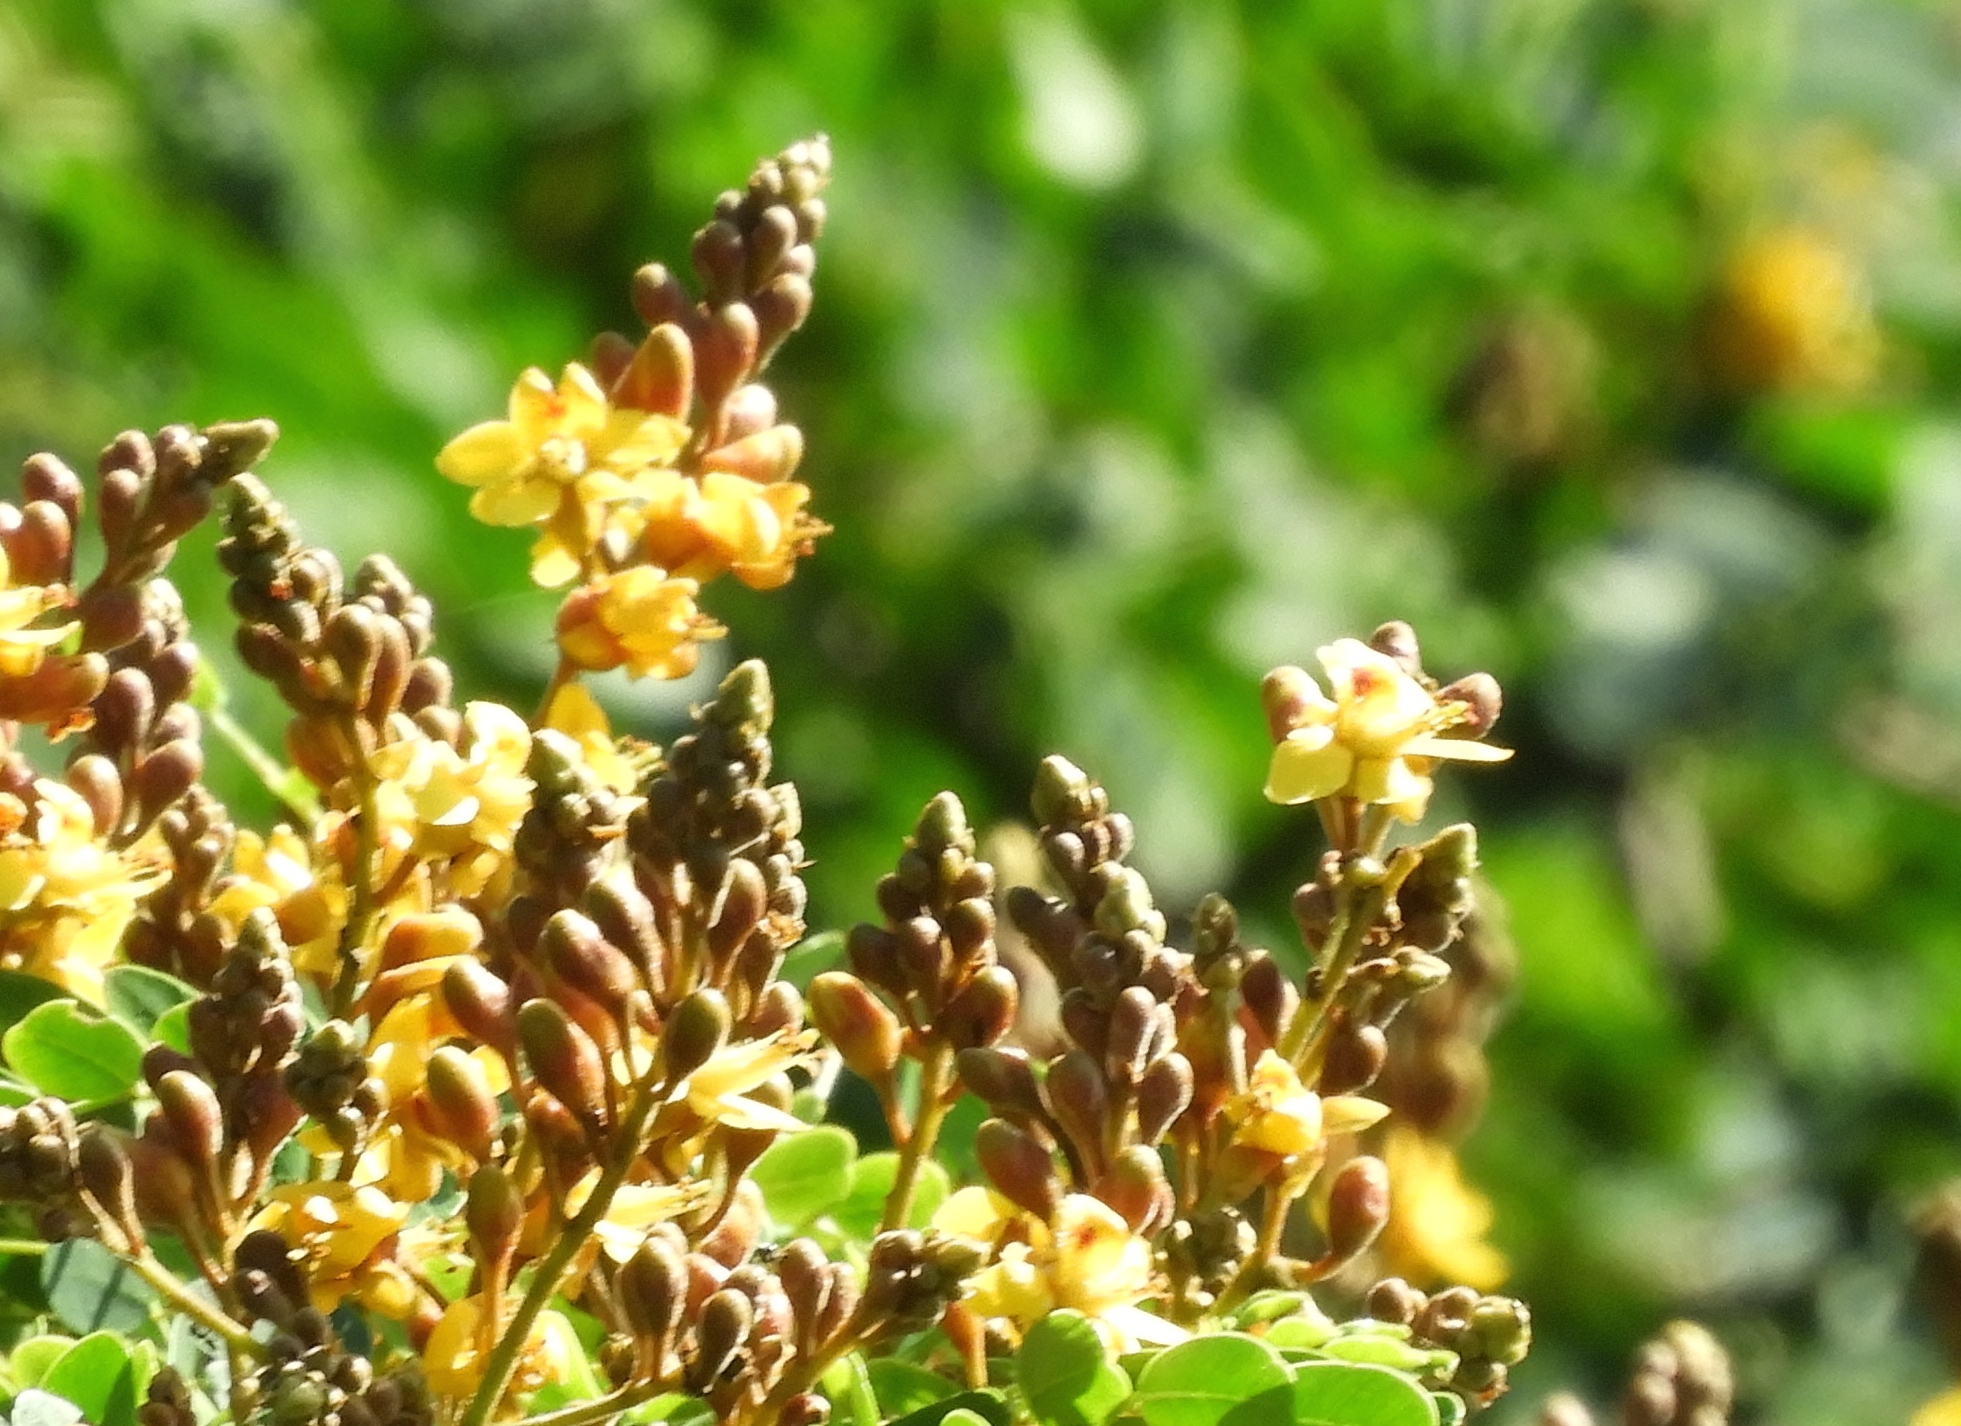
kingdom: Plantae
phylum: Tracheophyta
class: Magnoliopsida
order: Fabales
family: Fabaceae
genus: Libidibia
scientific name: Libidibia sclerocarpa
